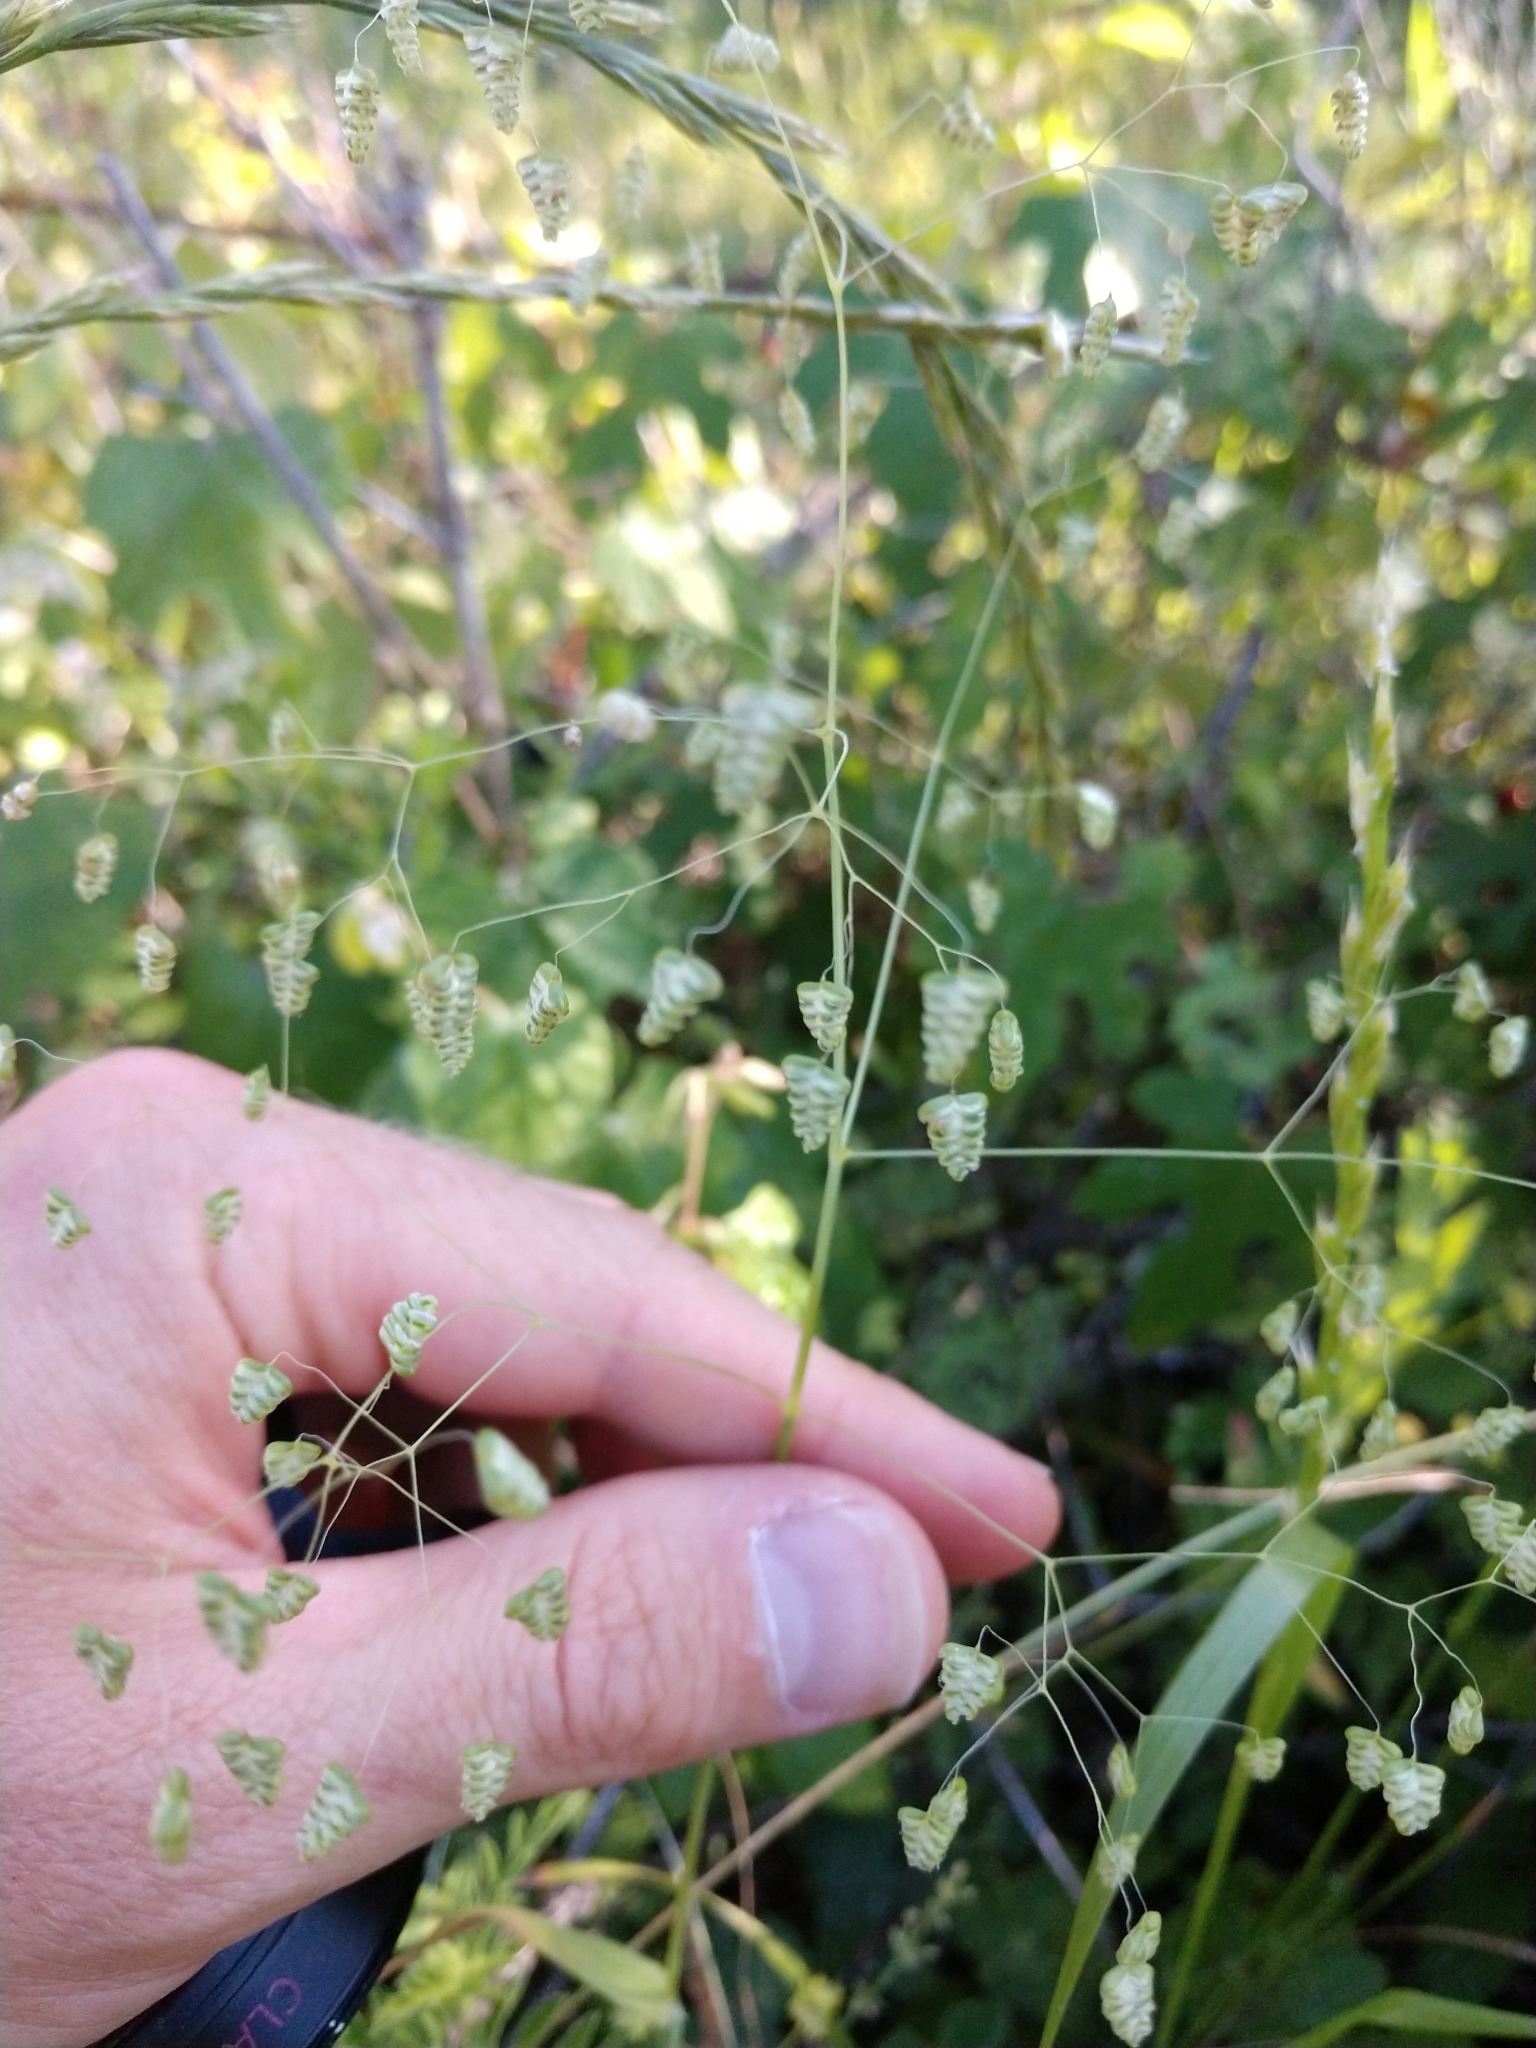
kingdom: Plantae
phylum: Tracheophyta
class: Liliopsida
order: Poales
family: Poaceae
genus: Briza
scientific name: Briza minor
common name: Lesser quaking-grass
